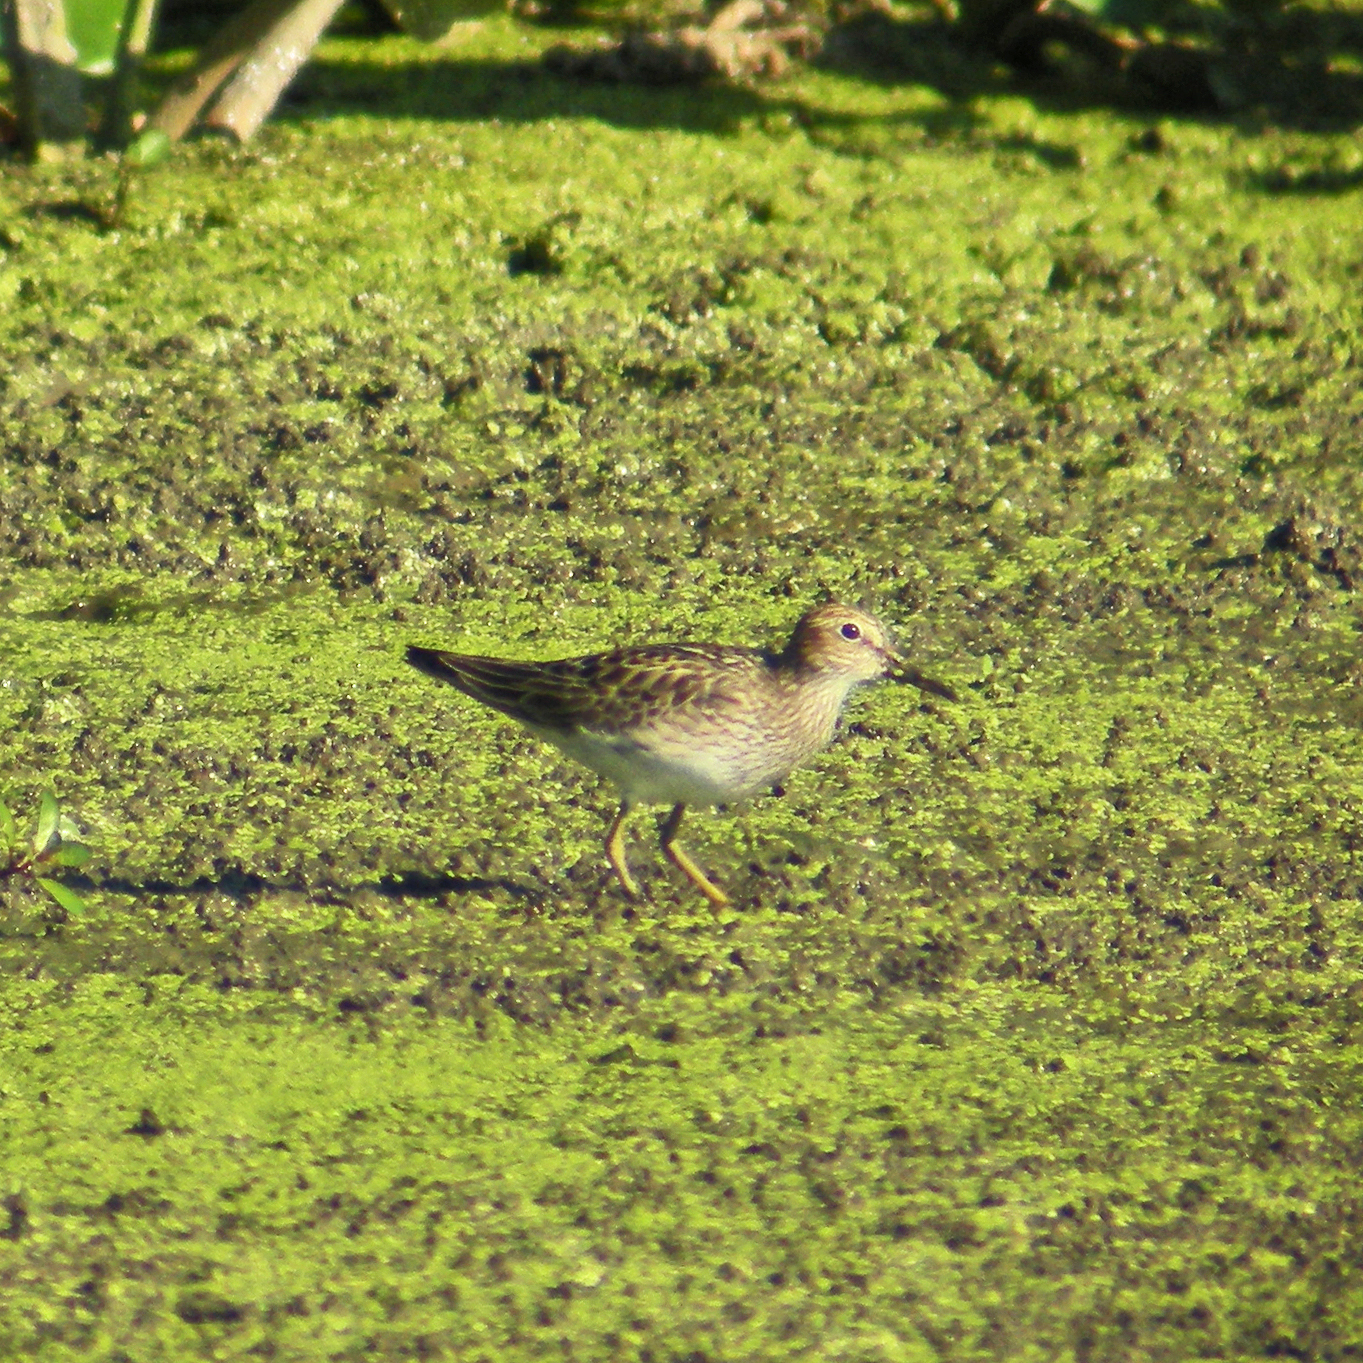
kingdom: Animalia
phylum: Chordata
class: Aves
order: Charadriiformes
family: Scolopacidae
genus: Calidris
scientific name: Calidris melanotos
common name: Pectoral sandpiper
